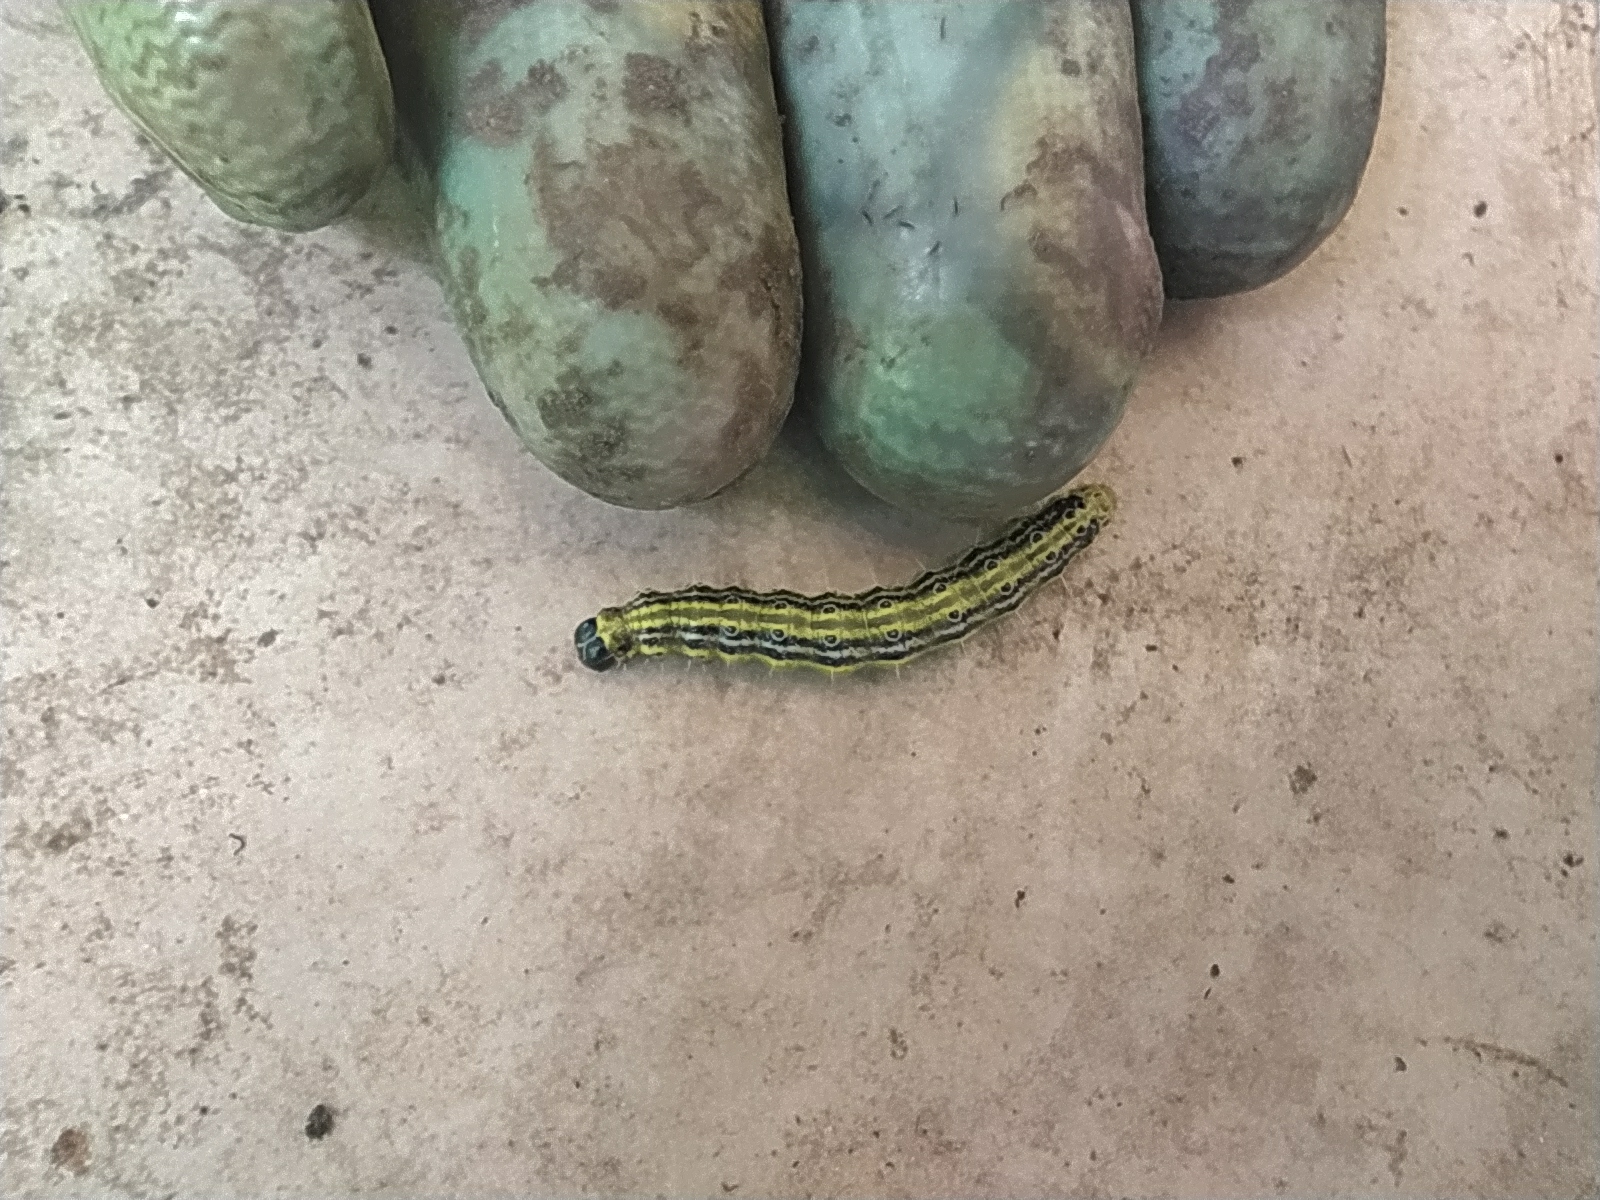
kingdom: Animalia
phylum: Arthropoda
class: Insecta
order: Lepidoptera
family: Crambidae
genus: Cydalima
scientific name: Cydalima perspectalis
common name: Box tree moth
